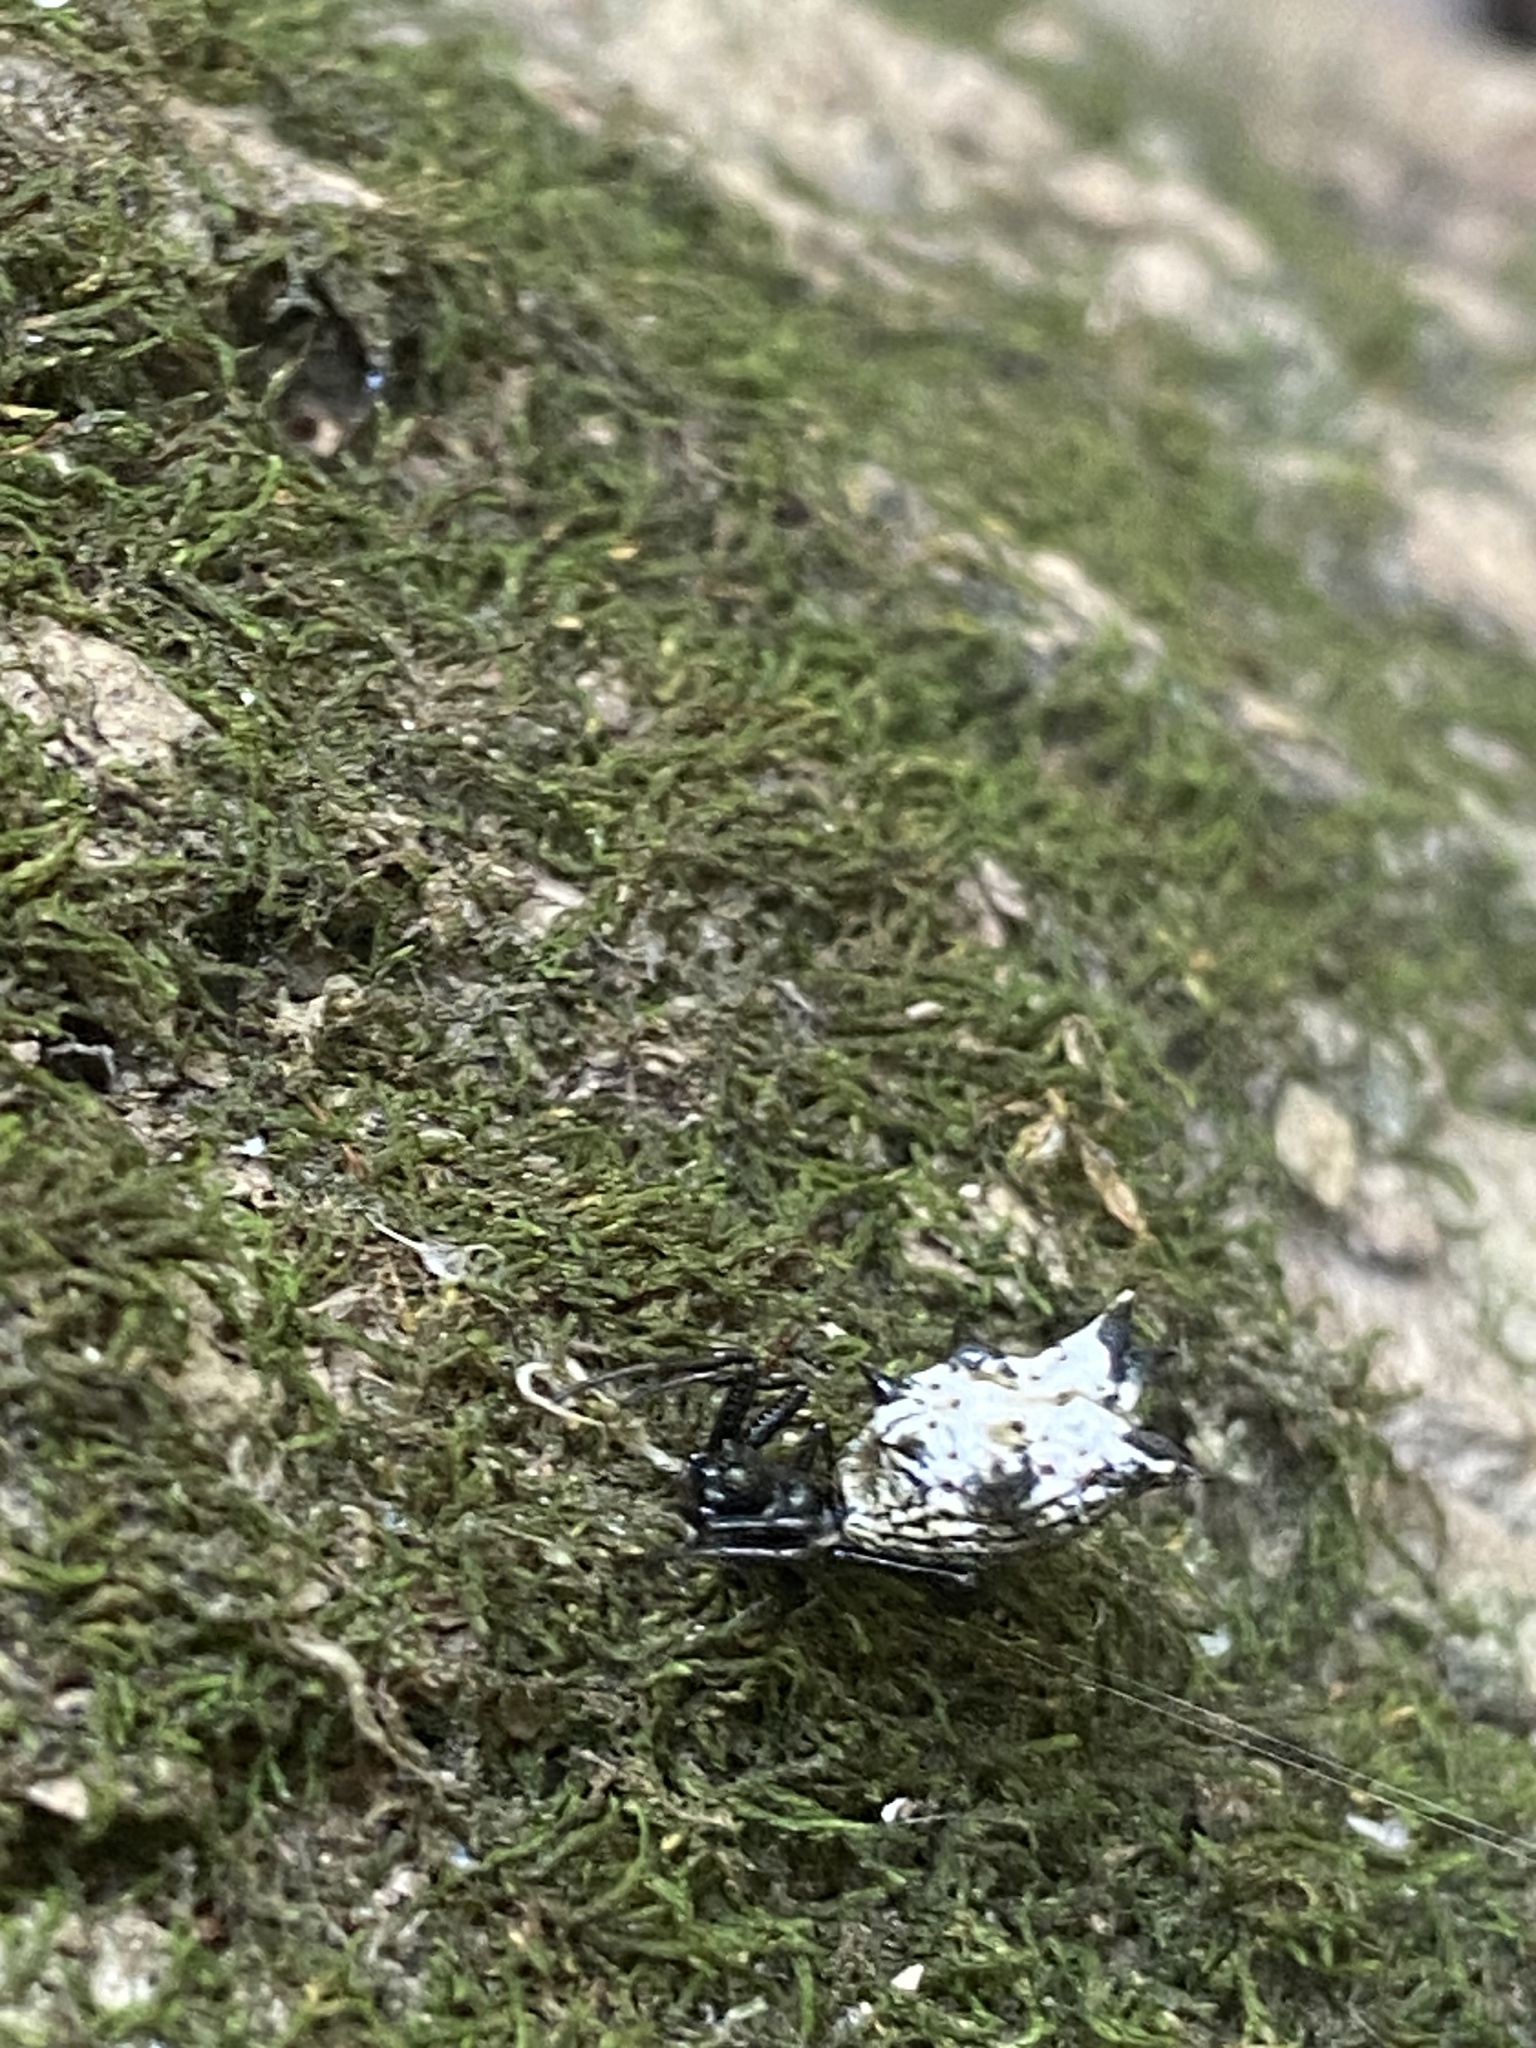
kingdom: Animalia
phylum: Arthropoda
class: Arachnida
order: Araneae
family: Araneidae
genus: Micrathena
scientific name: Micrathena gracilis
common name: Orb weavers
